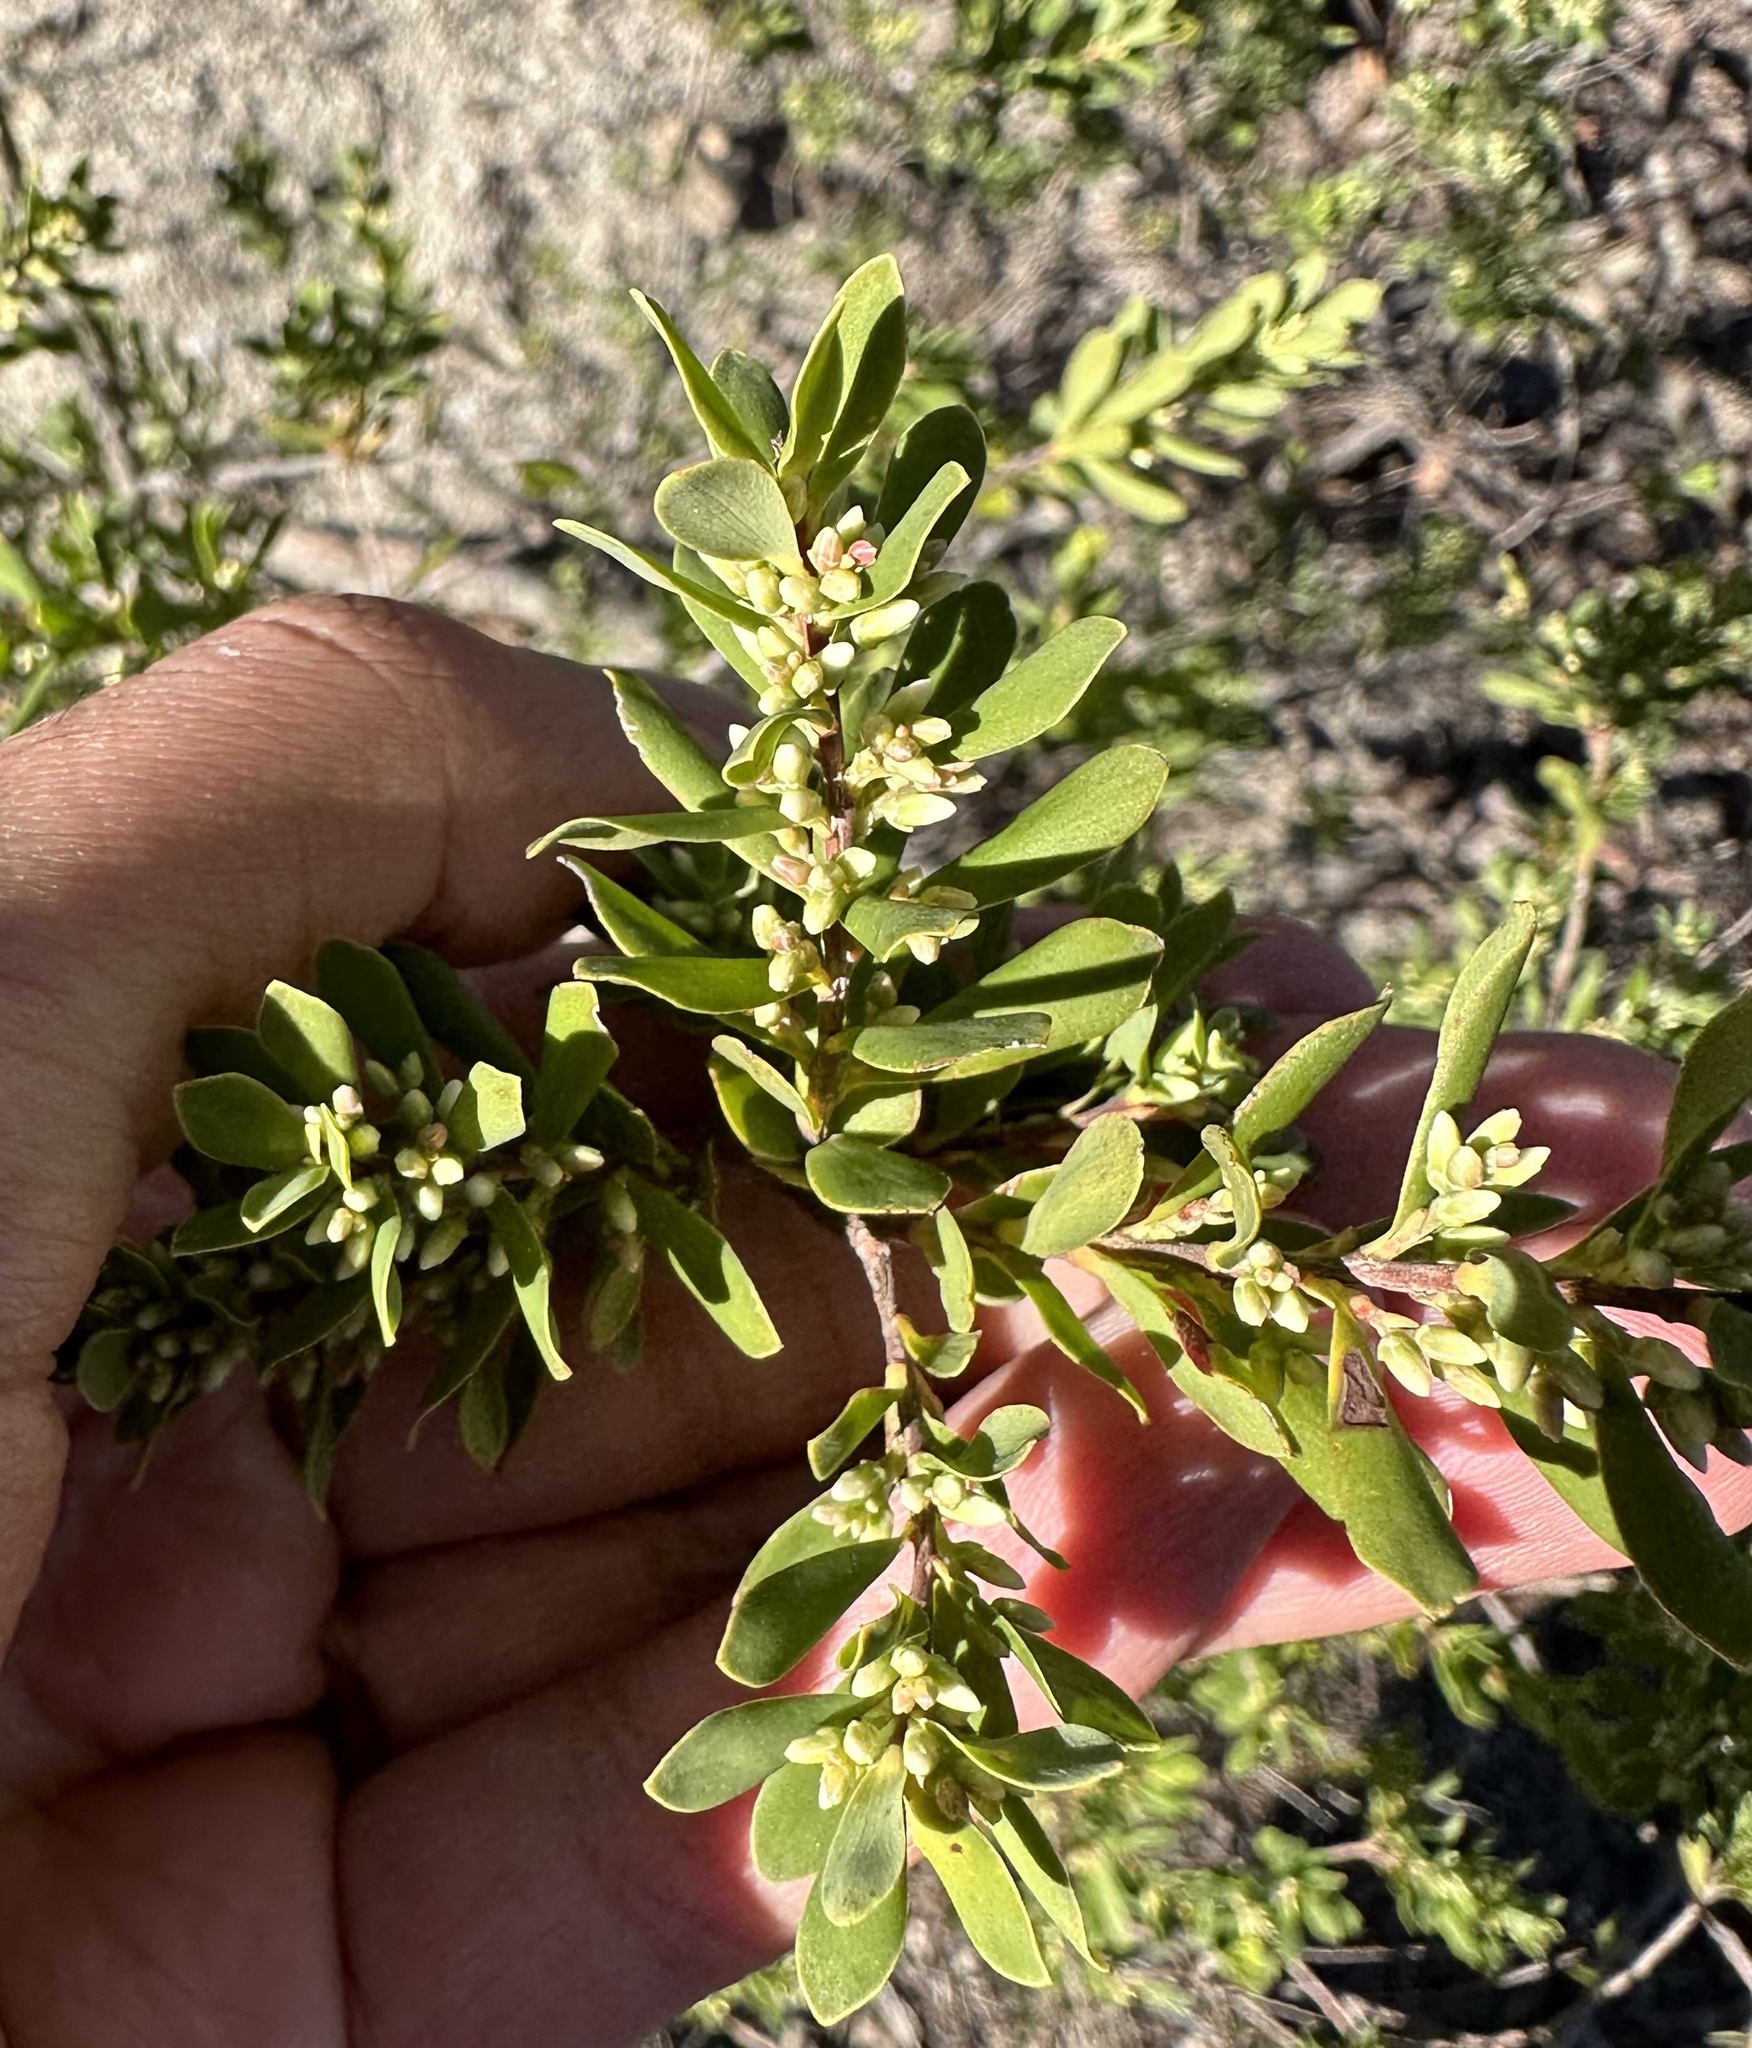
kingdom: Plantae
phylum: Tracheophyta
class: Magnoliopsida
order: Ericales
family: Ericaceae
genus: Styphelia
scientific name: Styphelia mutica
